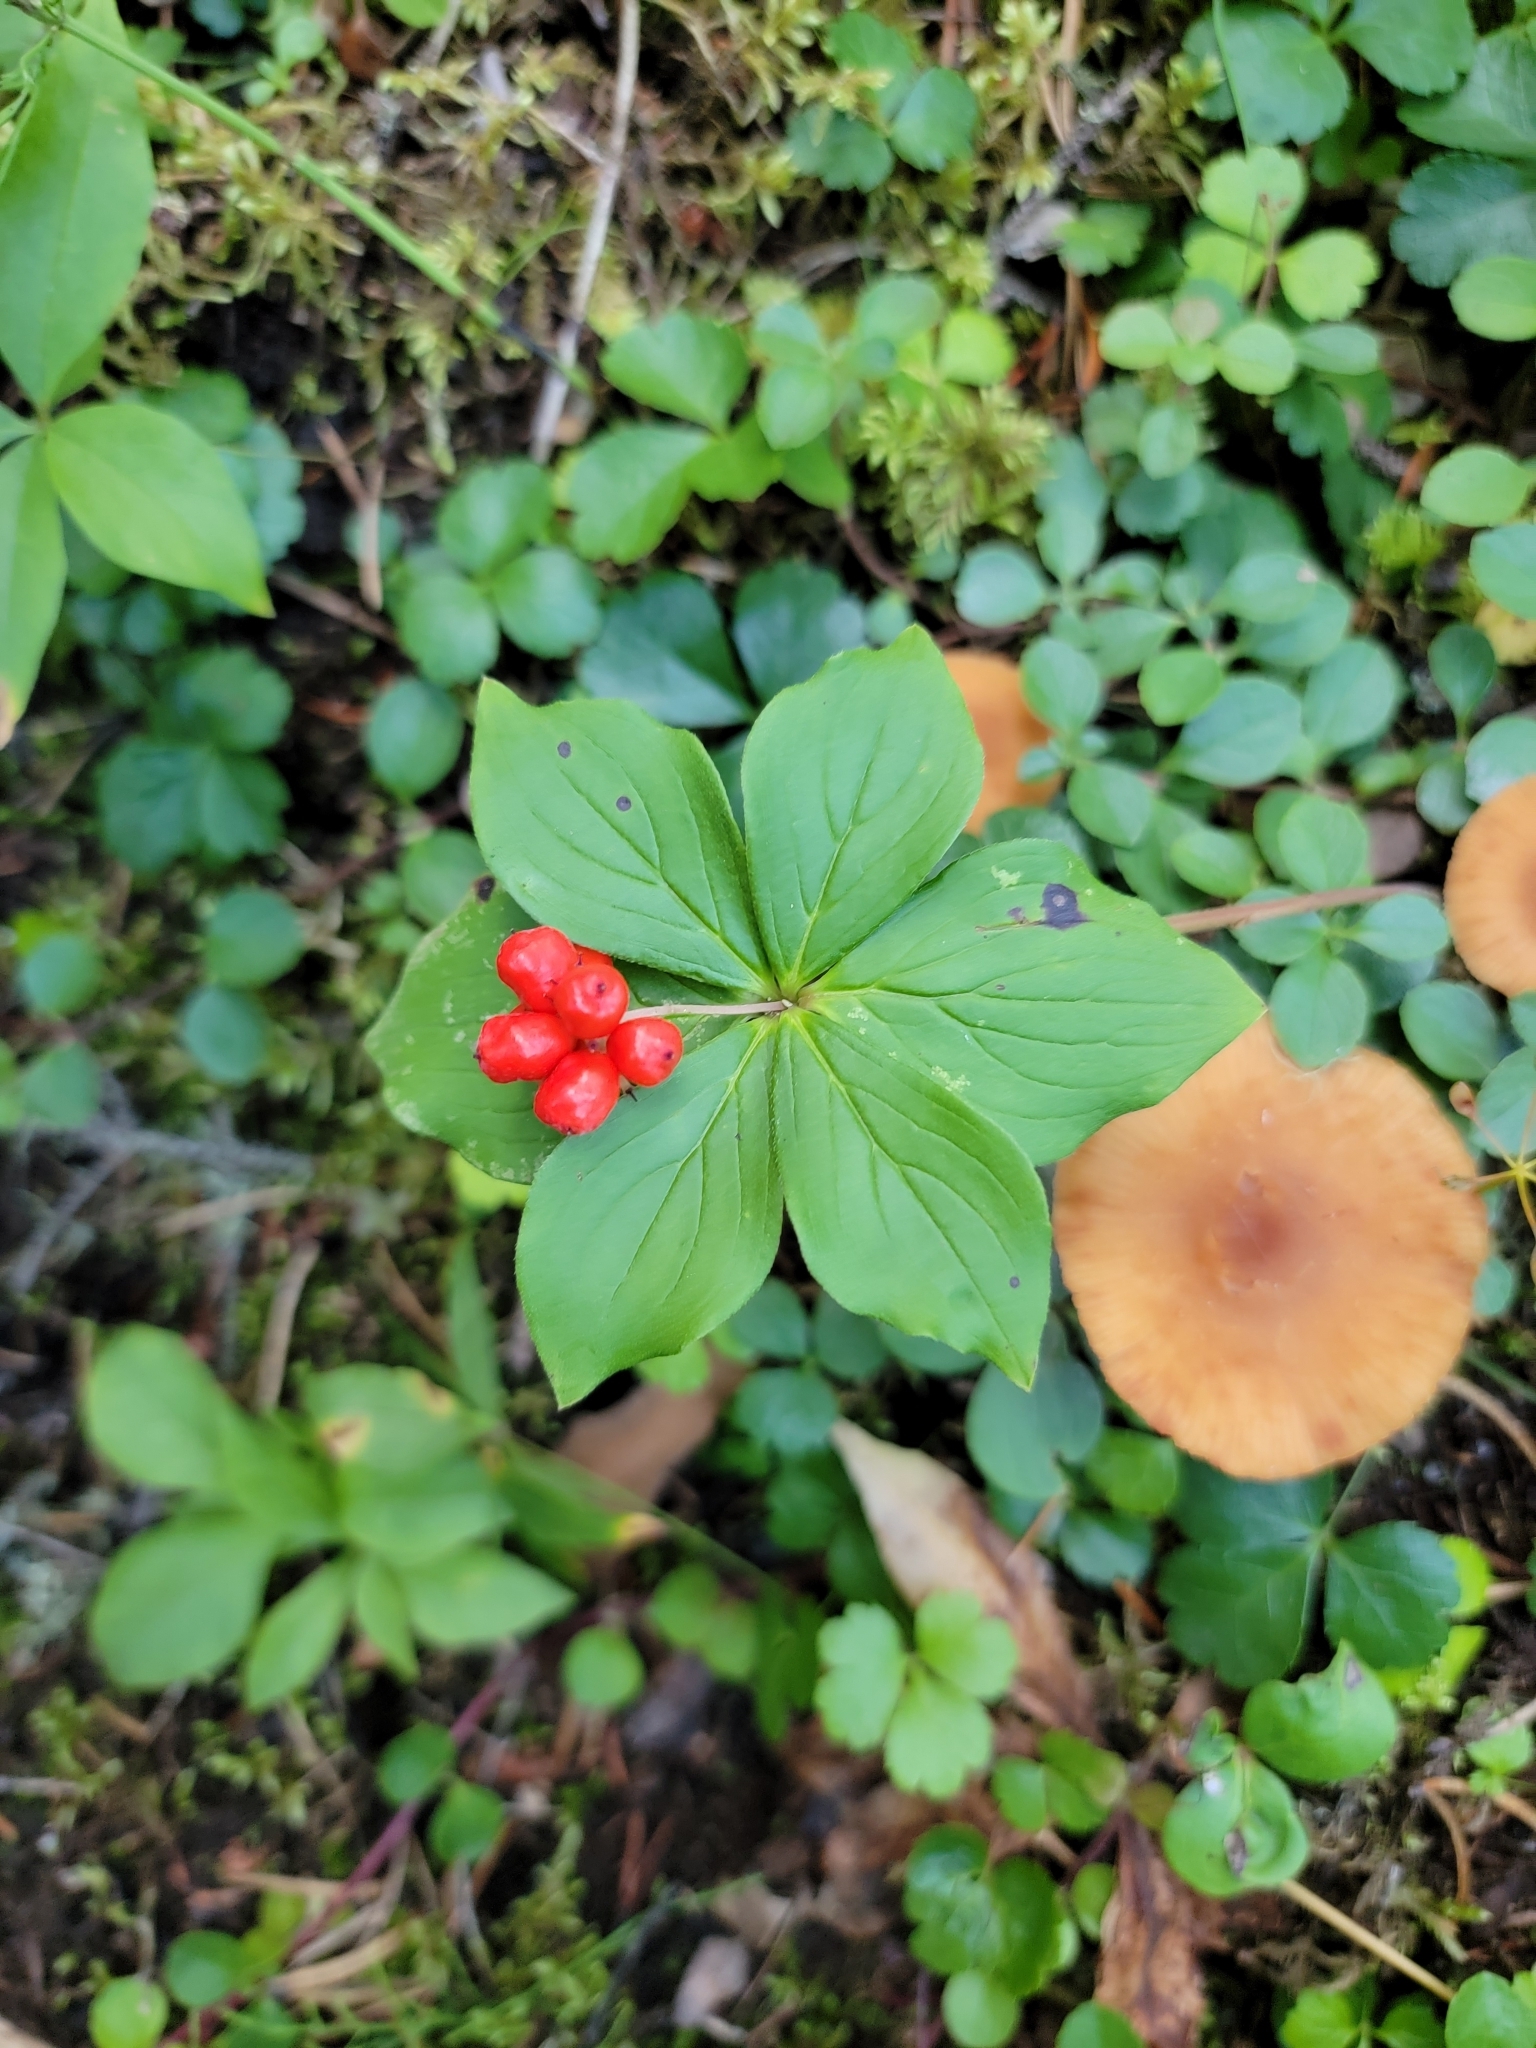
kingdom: Plantae
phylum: Tracheophyta
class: Magnoliopsida
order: Cornales
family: Cornaceae
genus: Cornus
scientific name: Cornus canadensis
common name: Creeping dogwood
